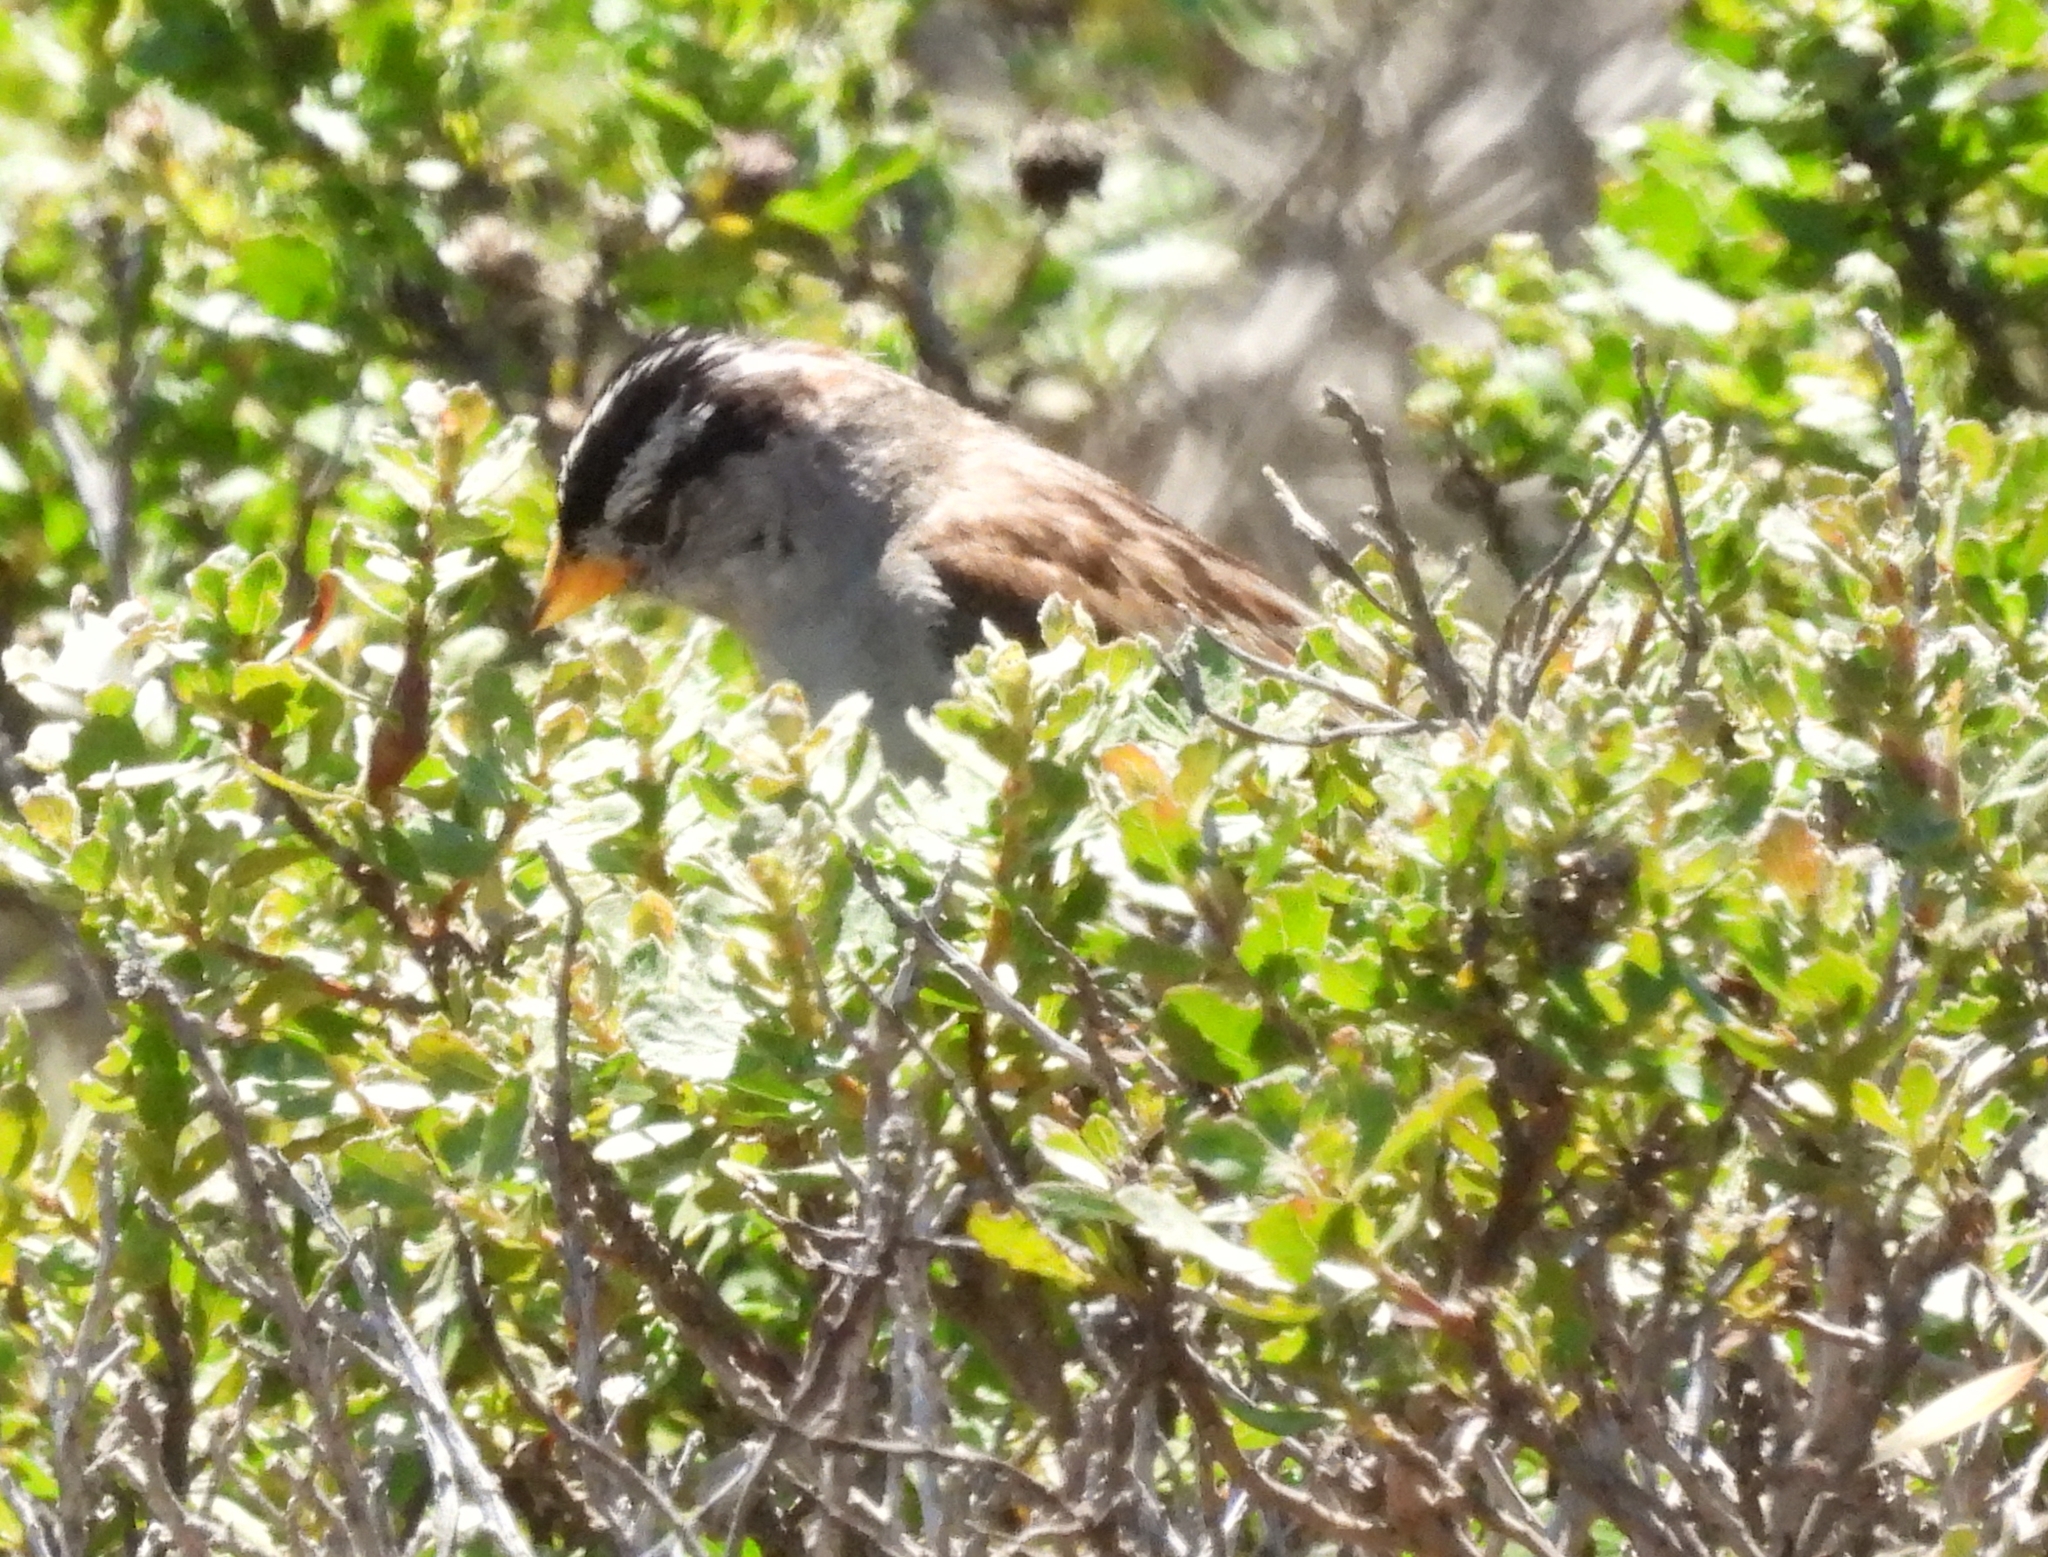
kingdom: Animalia
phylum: Chordata
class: Aves
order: Passeriformes
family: Passerellidae
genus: Zonotrichia
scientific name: Zonotrichia leucophrys
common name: White-crowned sparrow
